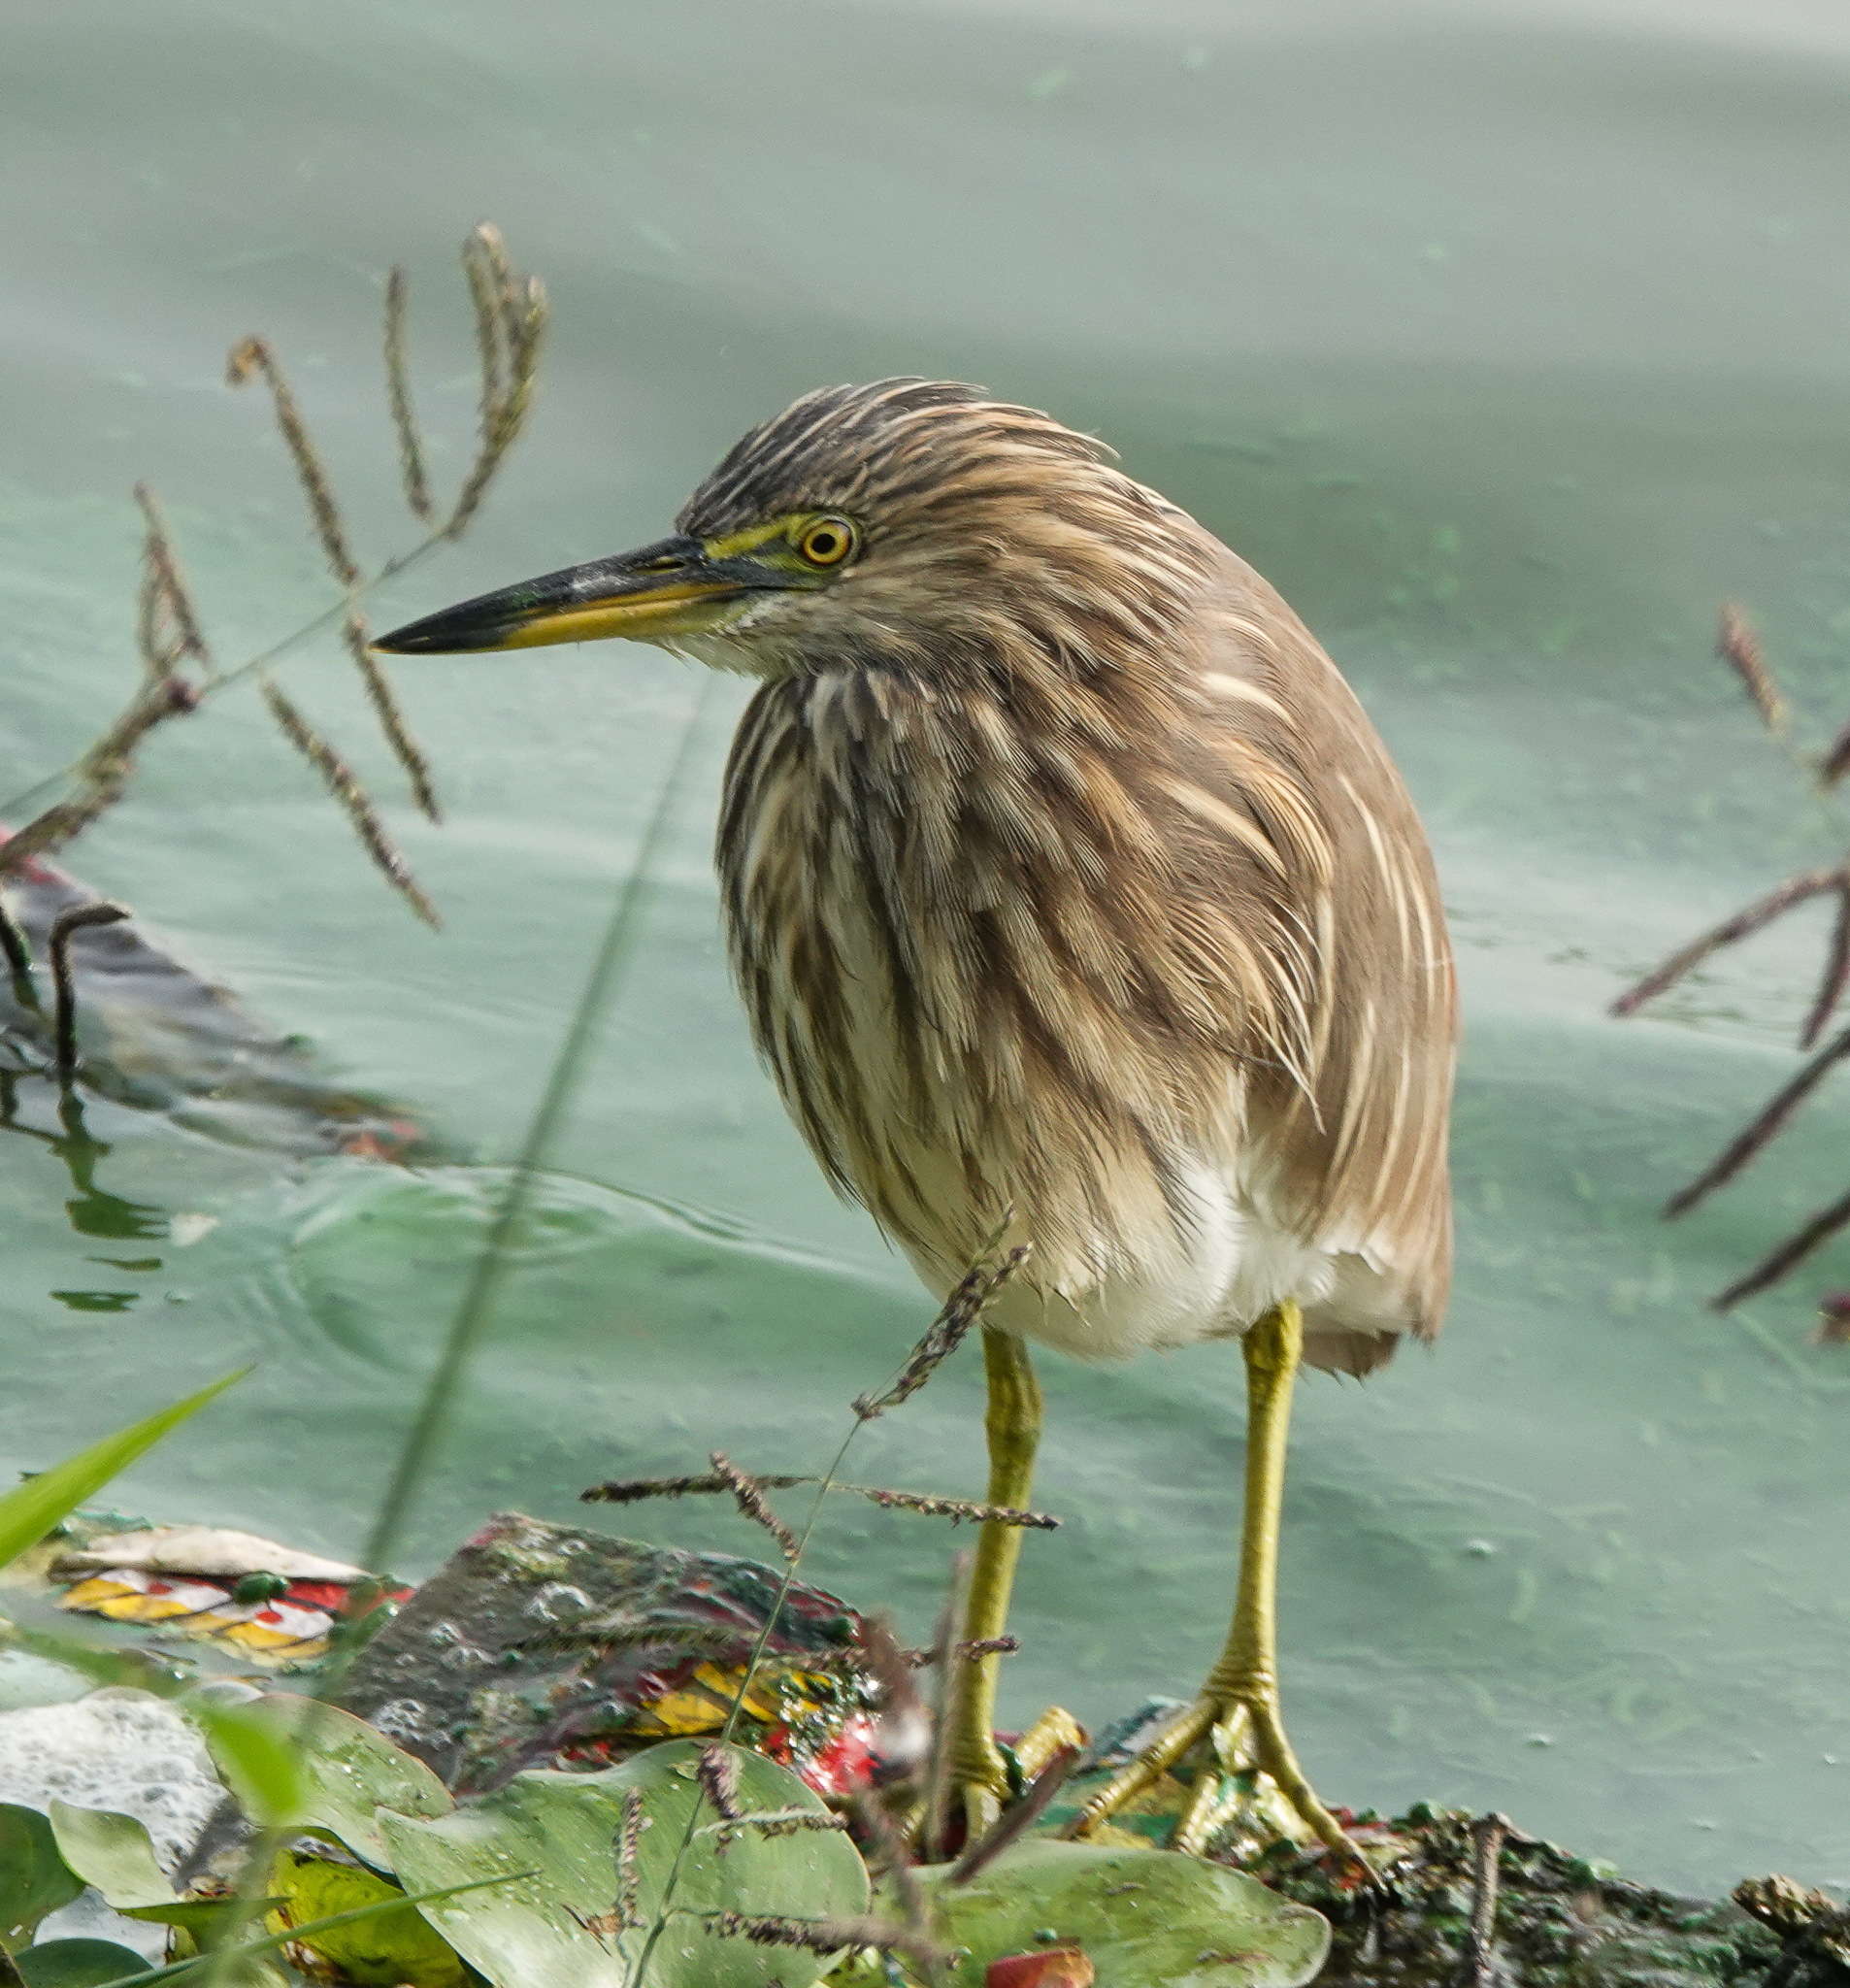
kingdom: Animalia
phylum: Chordata
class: Aves
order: Pelecaniformes
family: Ardeidae
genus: Ardeola
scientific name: Ardeola grayii
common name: Indian pond heron
